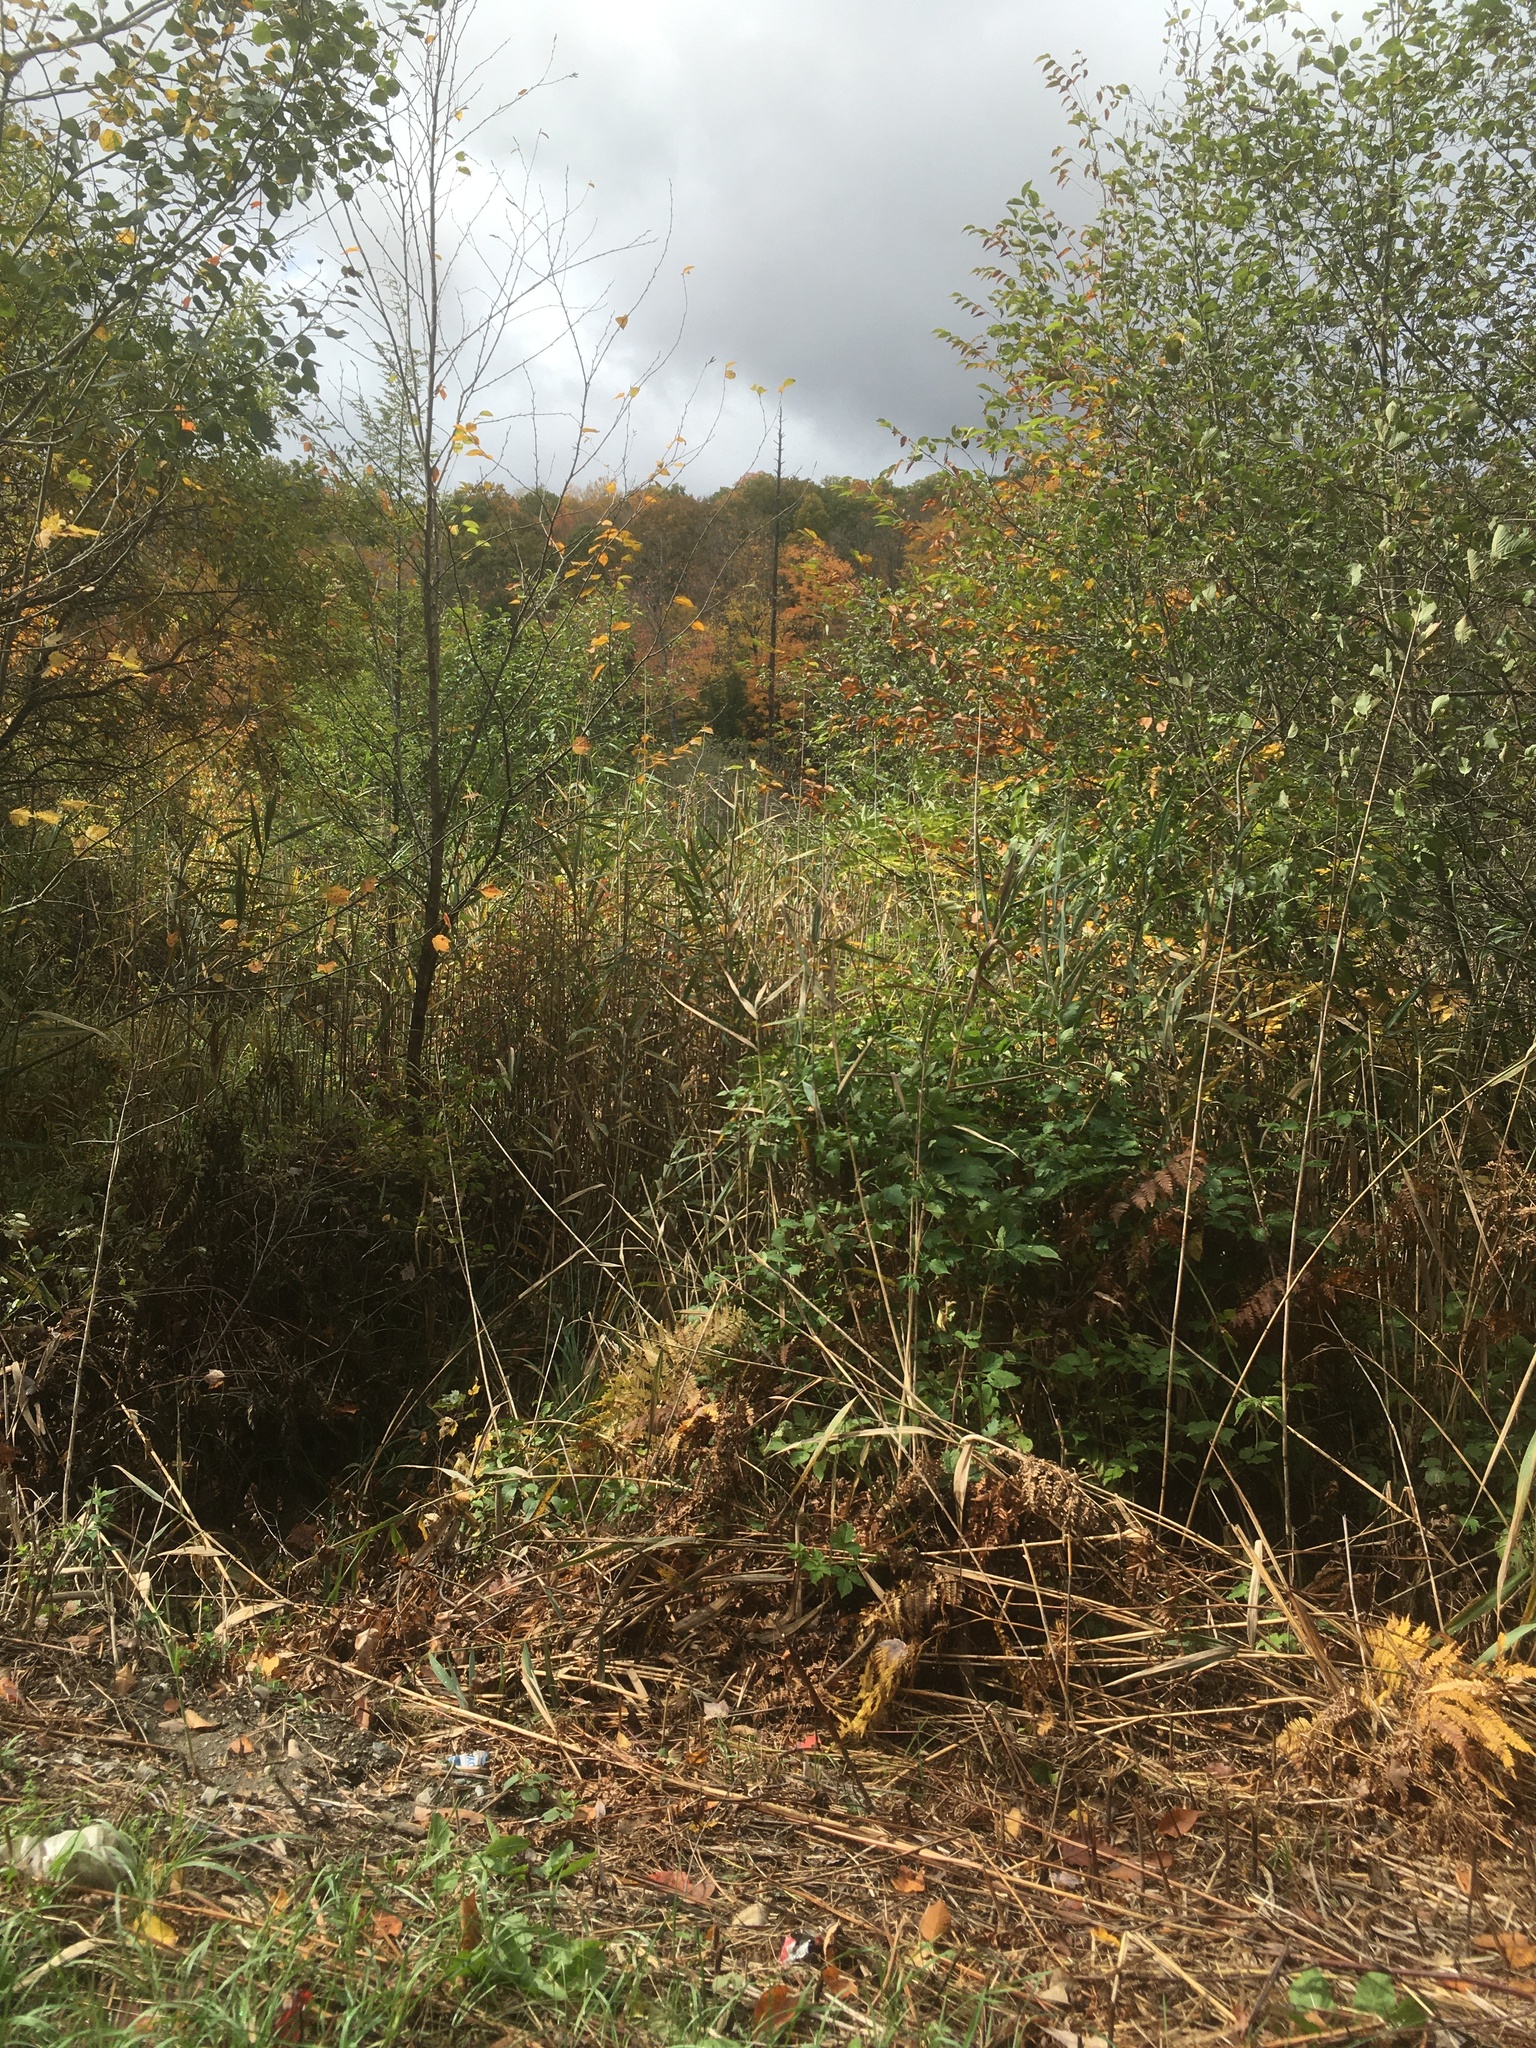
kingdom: Plantae
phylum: Tracheophyta
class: Liliopsida
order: Poales
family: Poaceae
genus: Phragmites
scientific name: Phragmites australis
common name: Common reed
